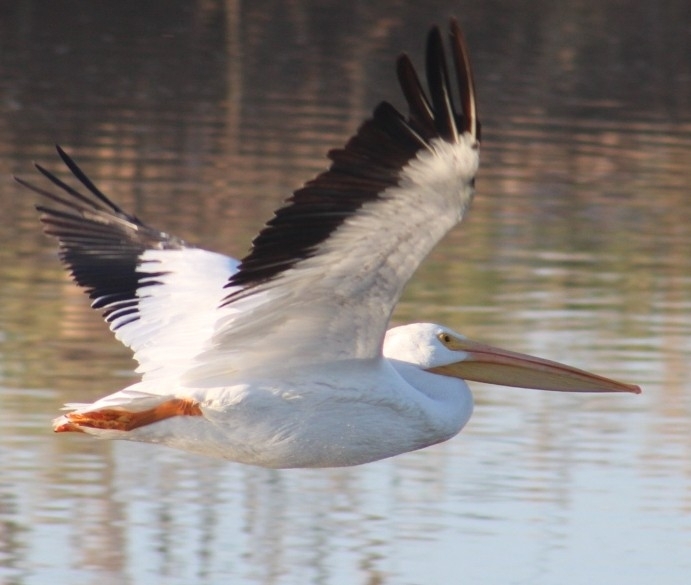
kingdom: Animalia
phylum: Chordata
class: Aves
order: Pelecaniformes
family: Pelecanidae
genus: Pelecanus
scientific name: Pelecanus erythrorhynchos
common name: American white pelican
